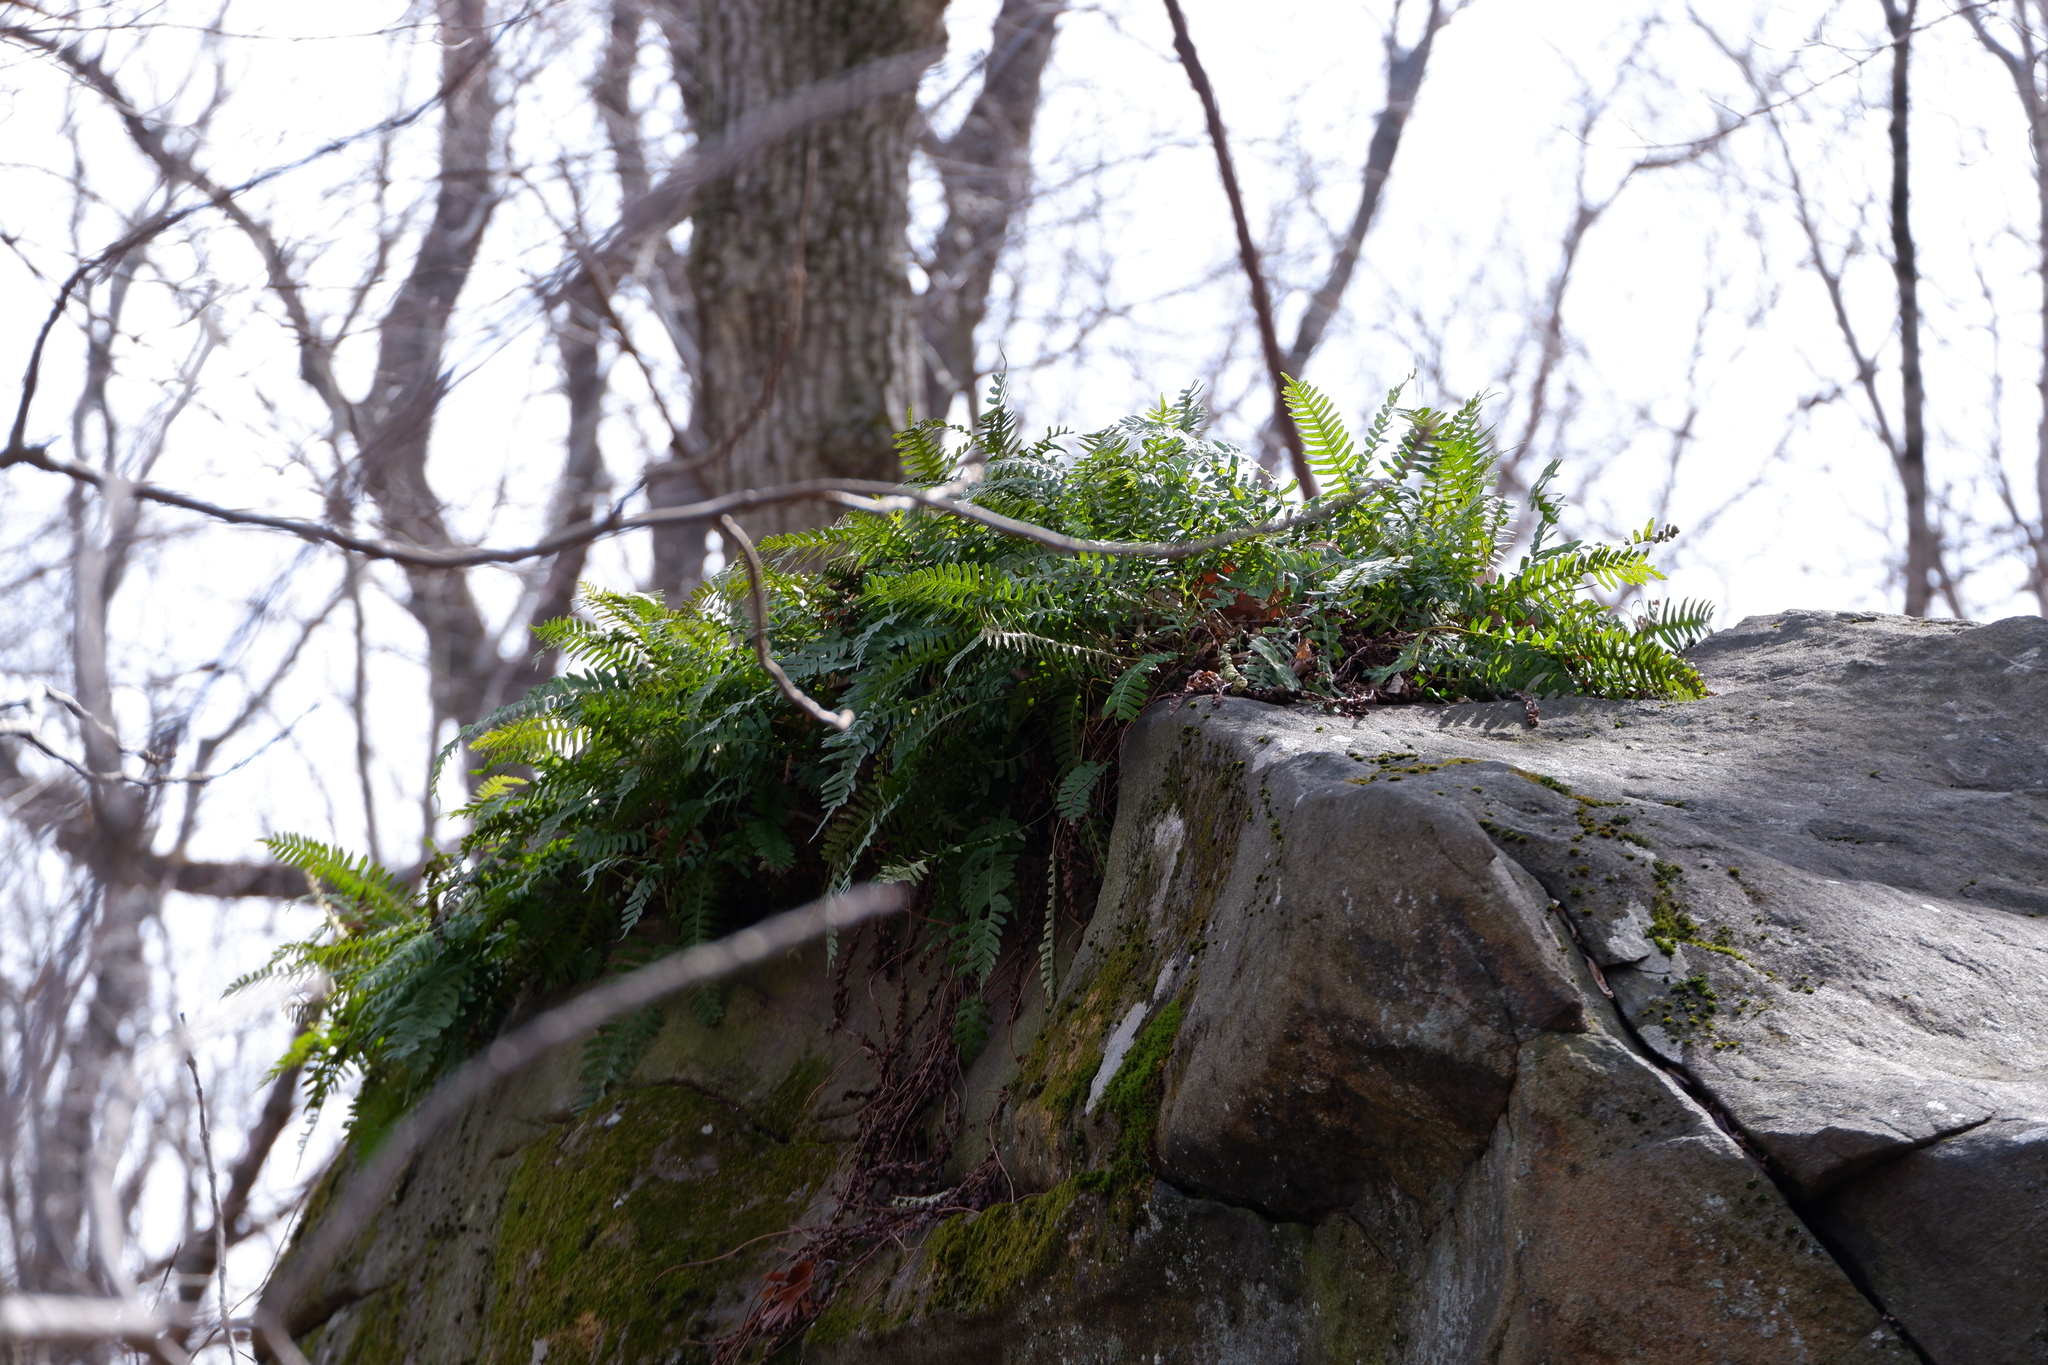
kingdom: Plantae
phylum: Tracheophyta
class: Polypodiopsida
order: Polypodiales
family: Polypodiaceae
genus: Polypodium
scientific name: Polypodium virginianum
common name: American wall fern
